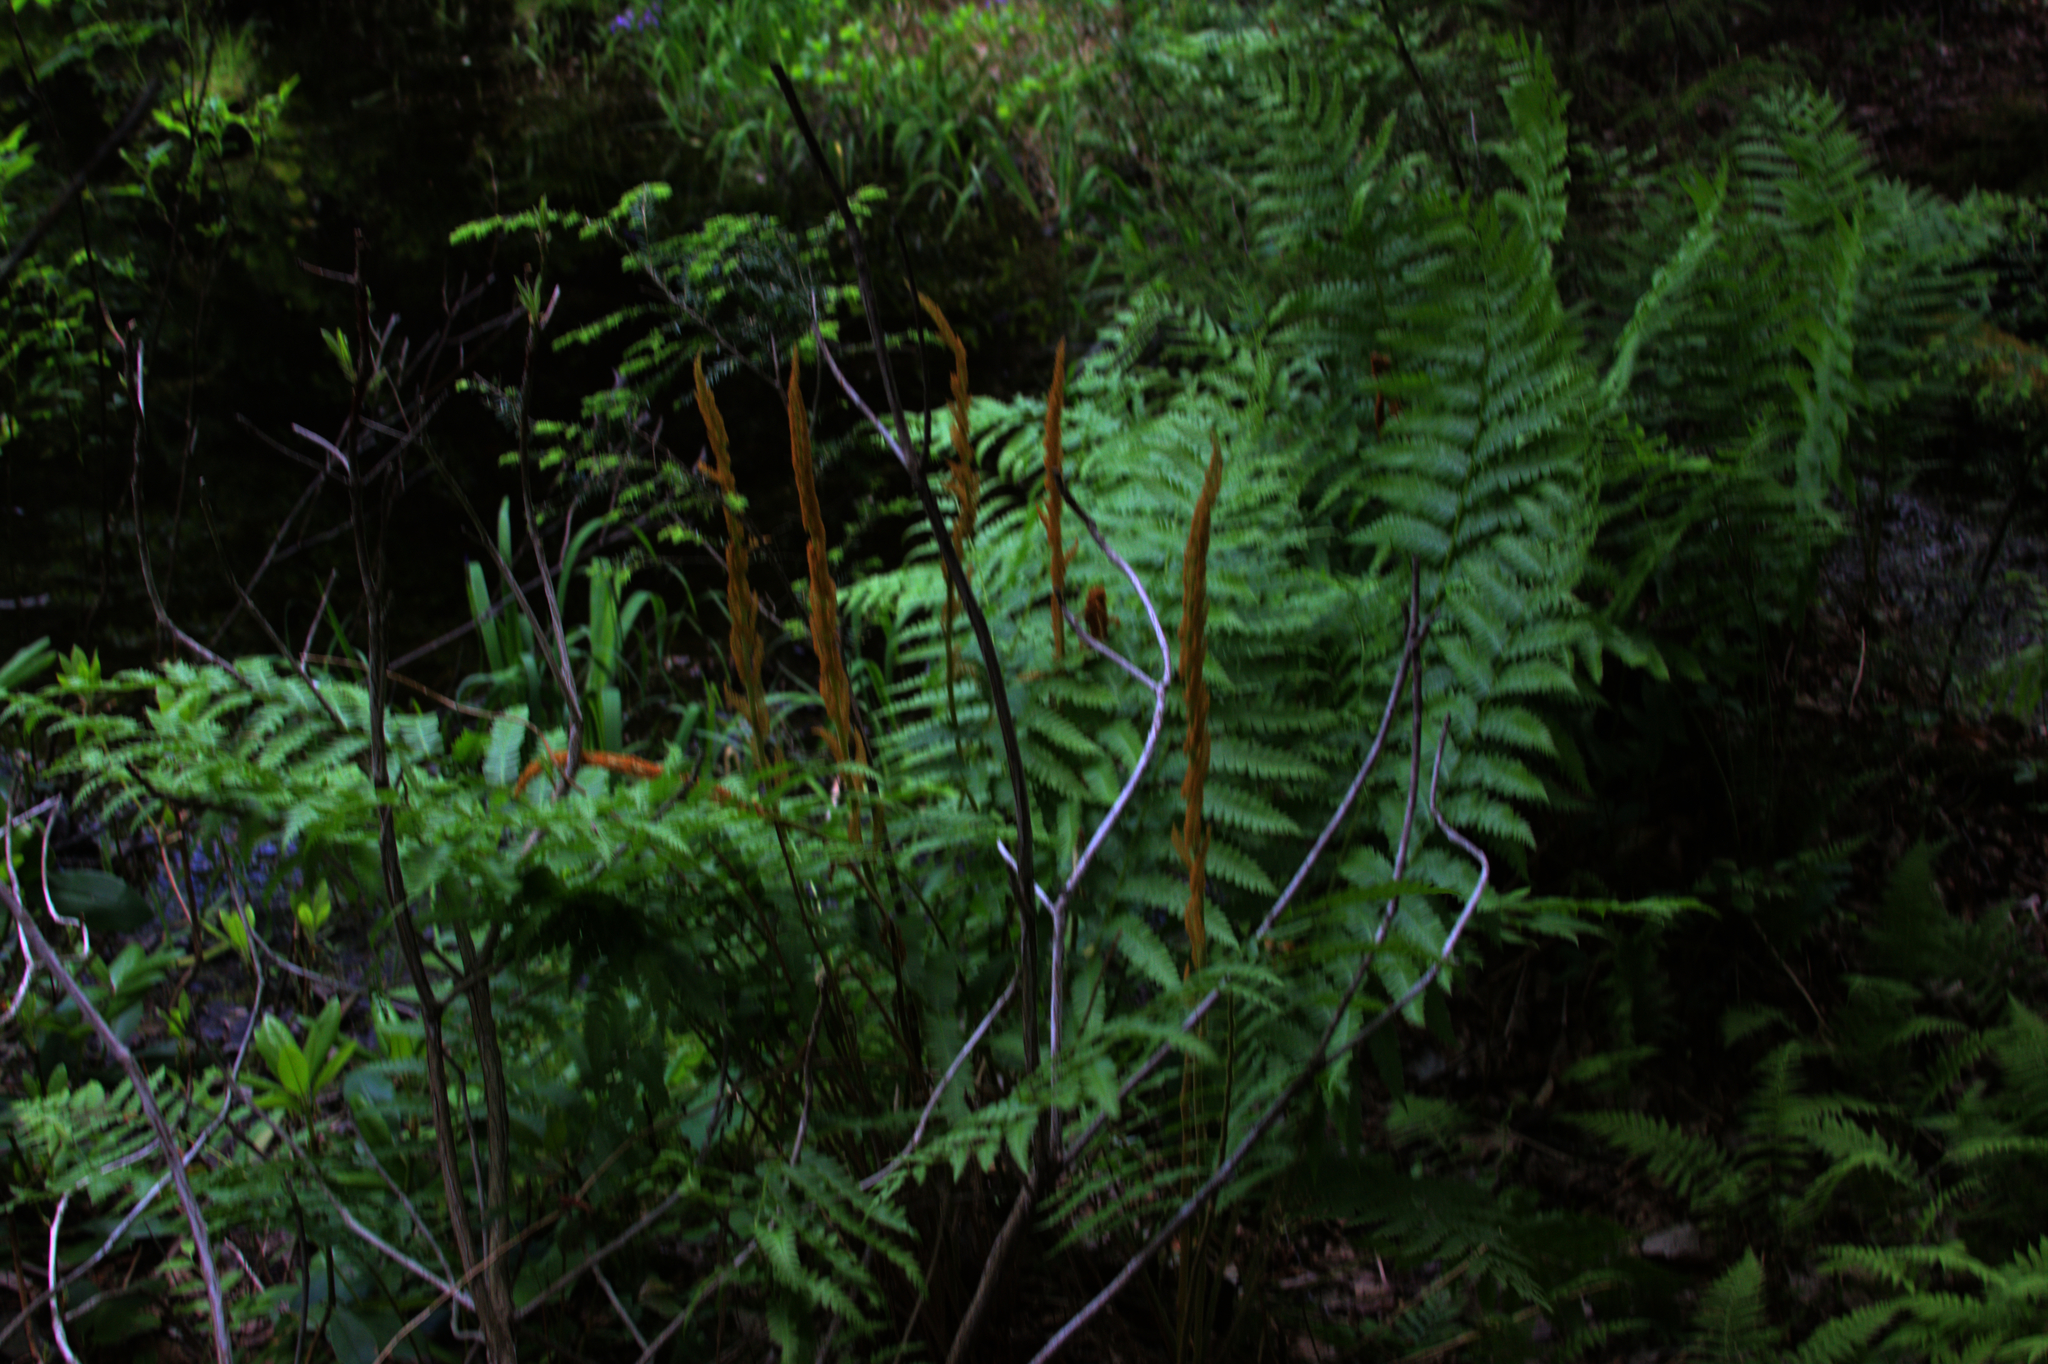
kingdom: Plantae
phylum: Tracheophyta
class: Polypodiopsida
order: Osmundales
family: Osmundaceae
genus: Osmundastrum
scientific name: Osmundastrum cinnamomeum
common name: Cinnamon fern
